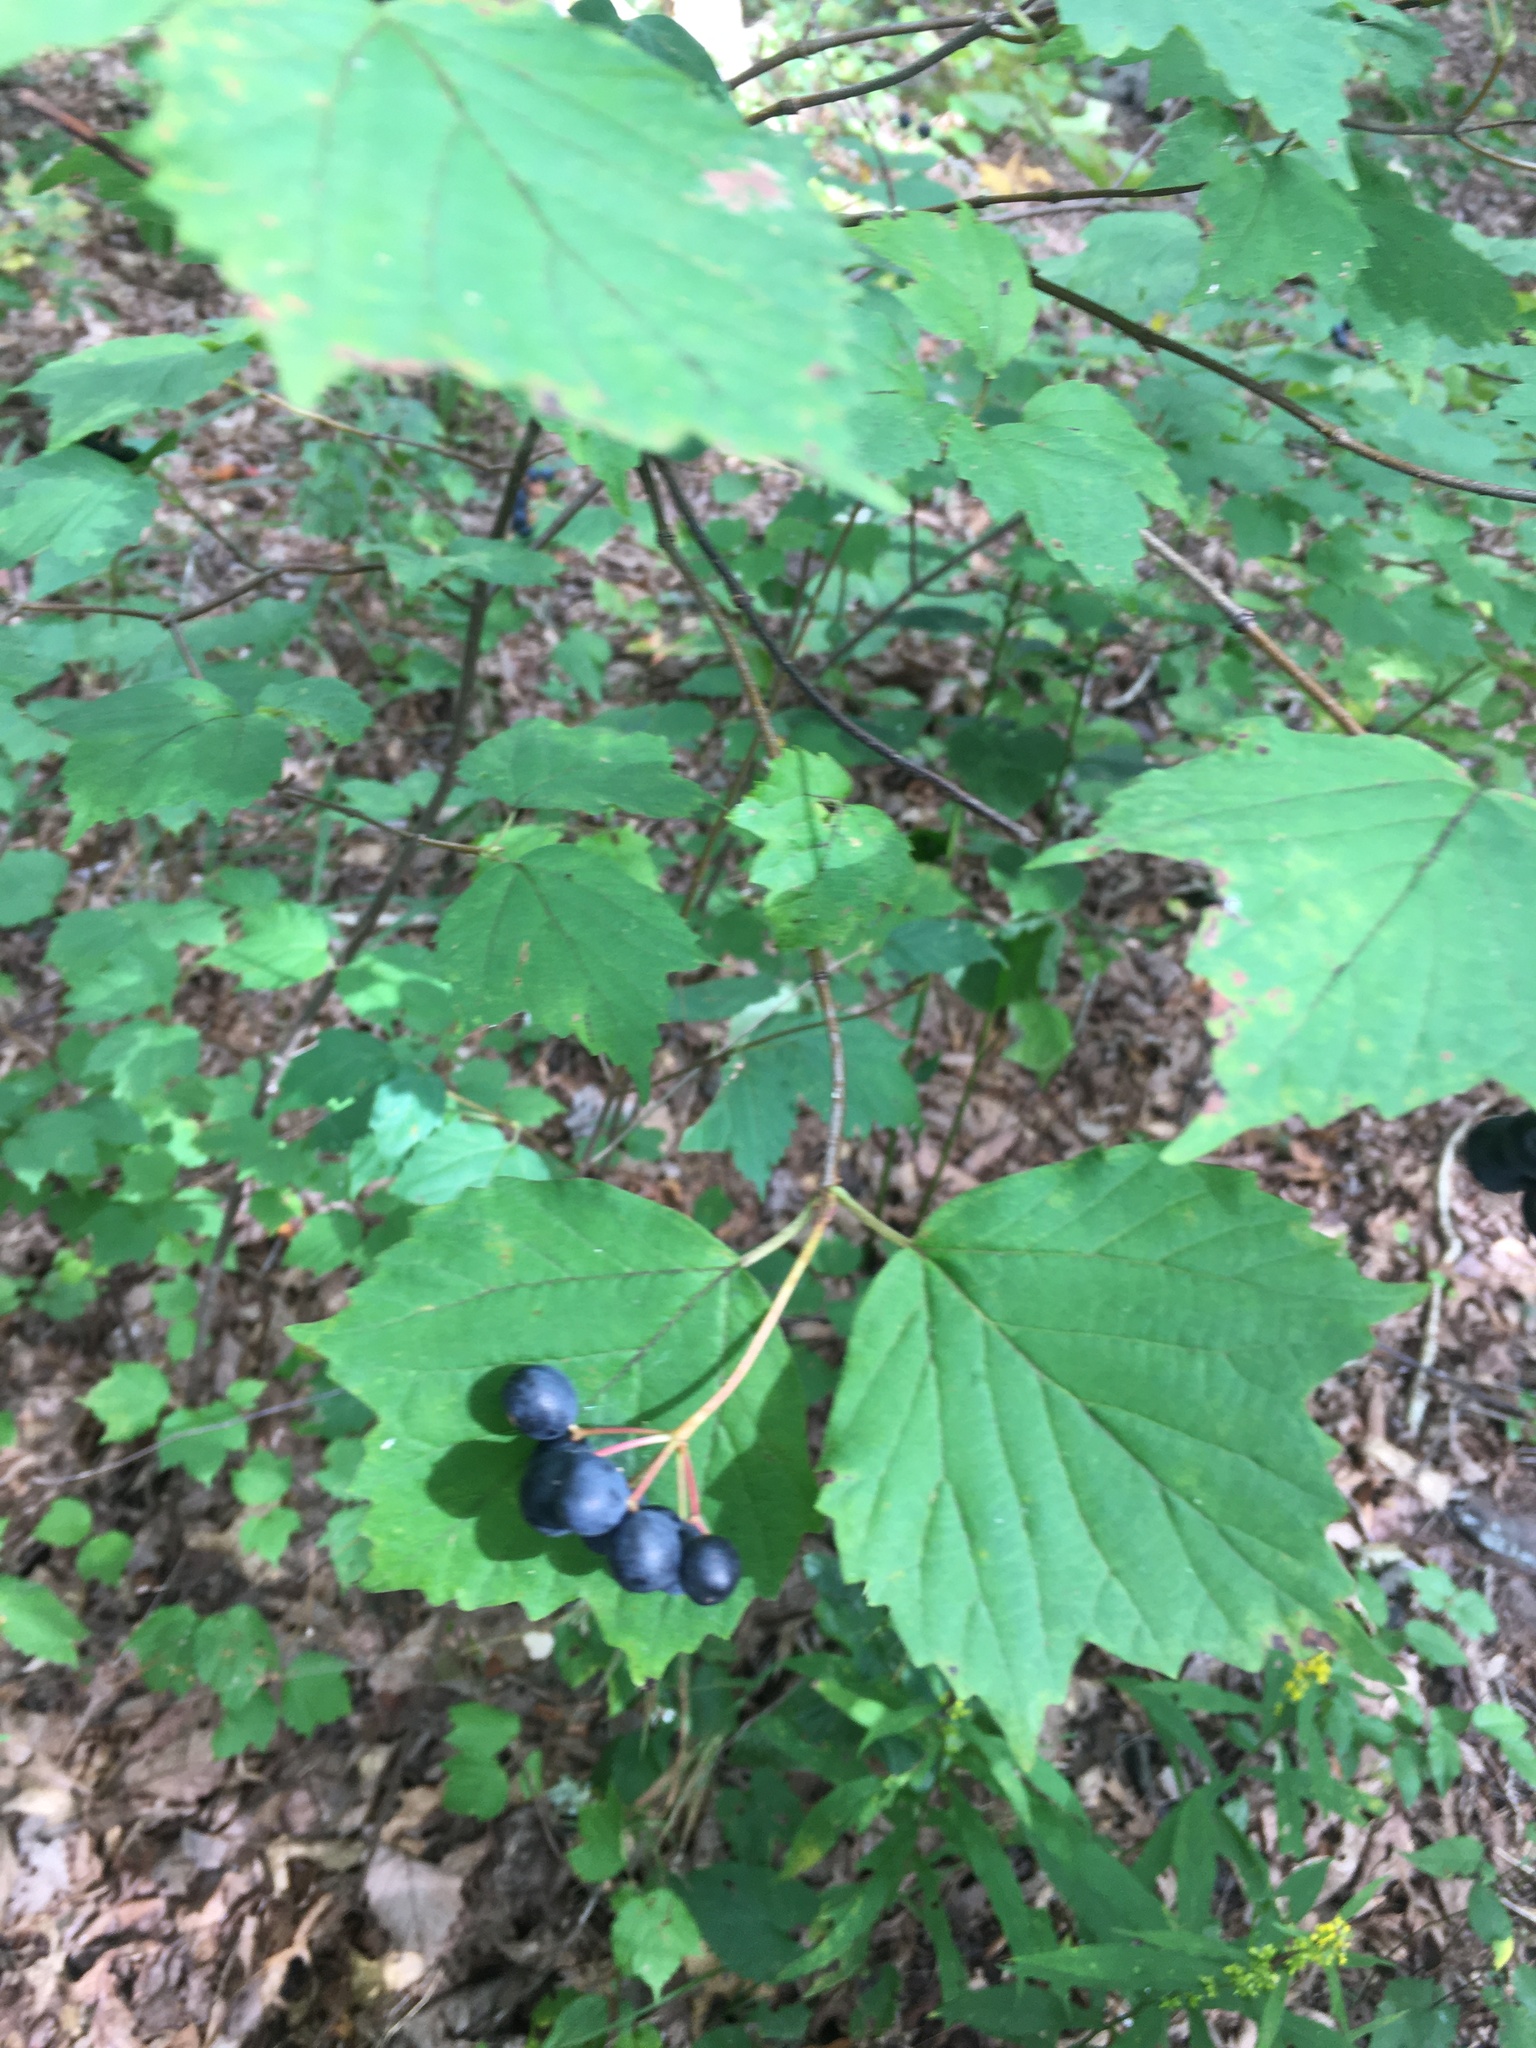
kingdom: Plantae
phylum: Tracheophyta
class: Magnoliopsida
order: Dipsacales
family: Viburnaceae
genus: Viburnum
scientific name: Viburnum acerifolium
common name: Dockmackie
